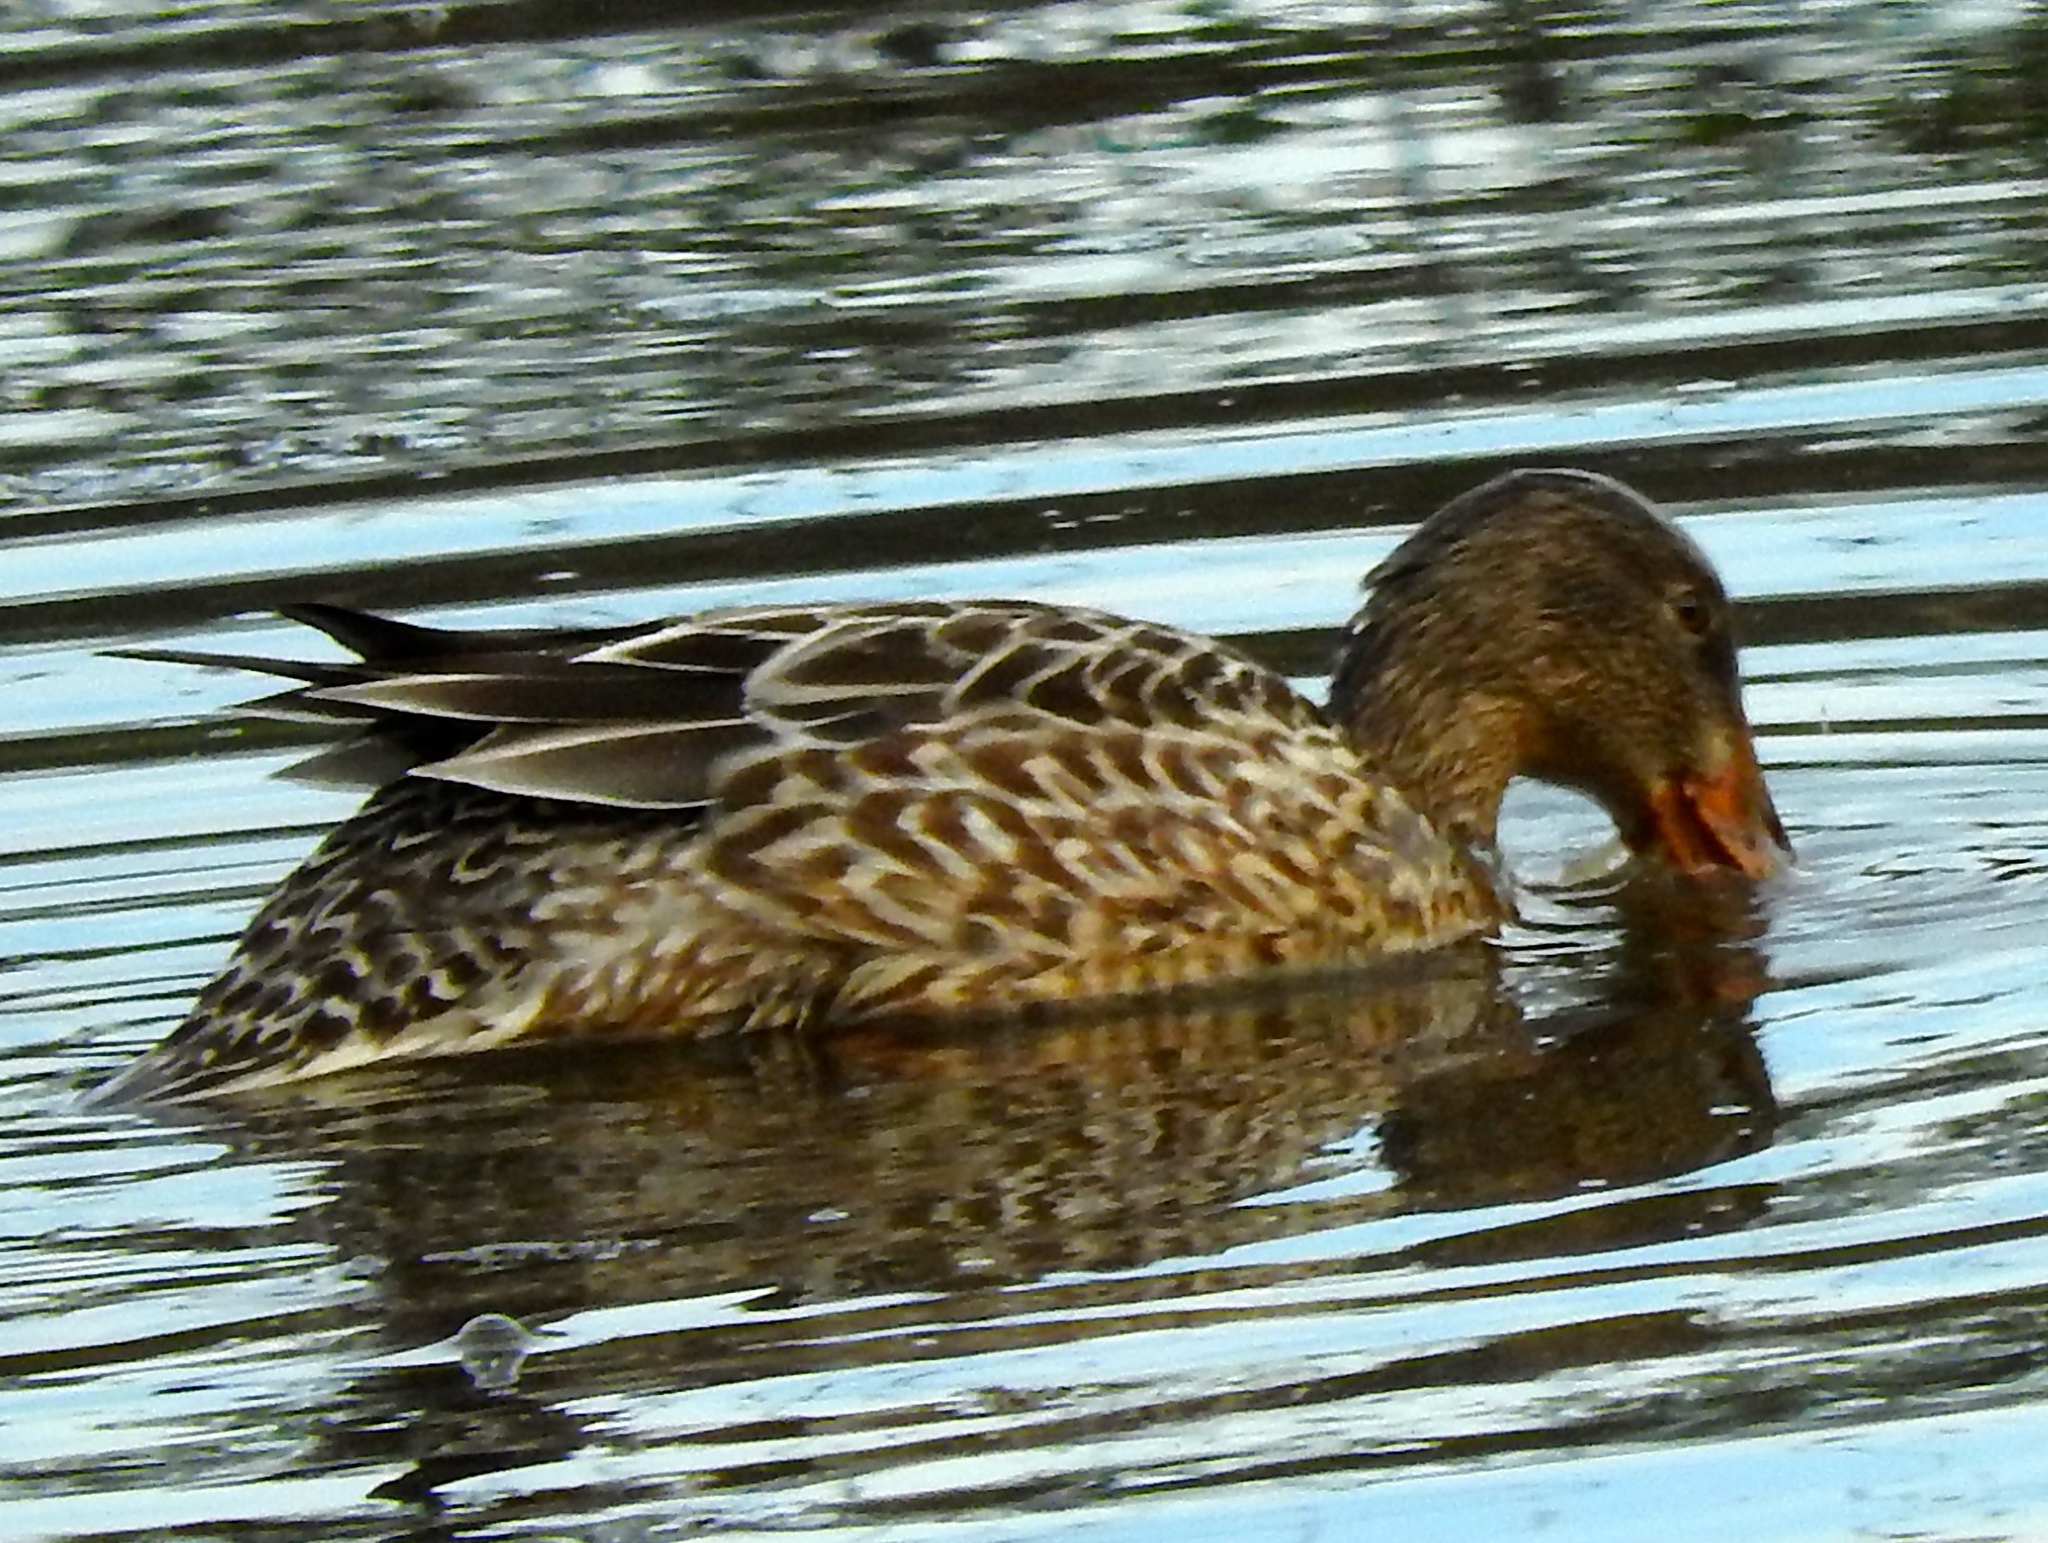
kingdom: Animalia
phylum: Chordata
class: Aves
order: Anseriformes
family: Anatidae
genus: Spatula
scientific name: Spatula clypeata
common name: Northern shoveler
